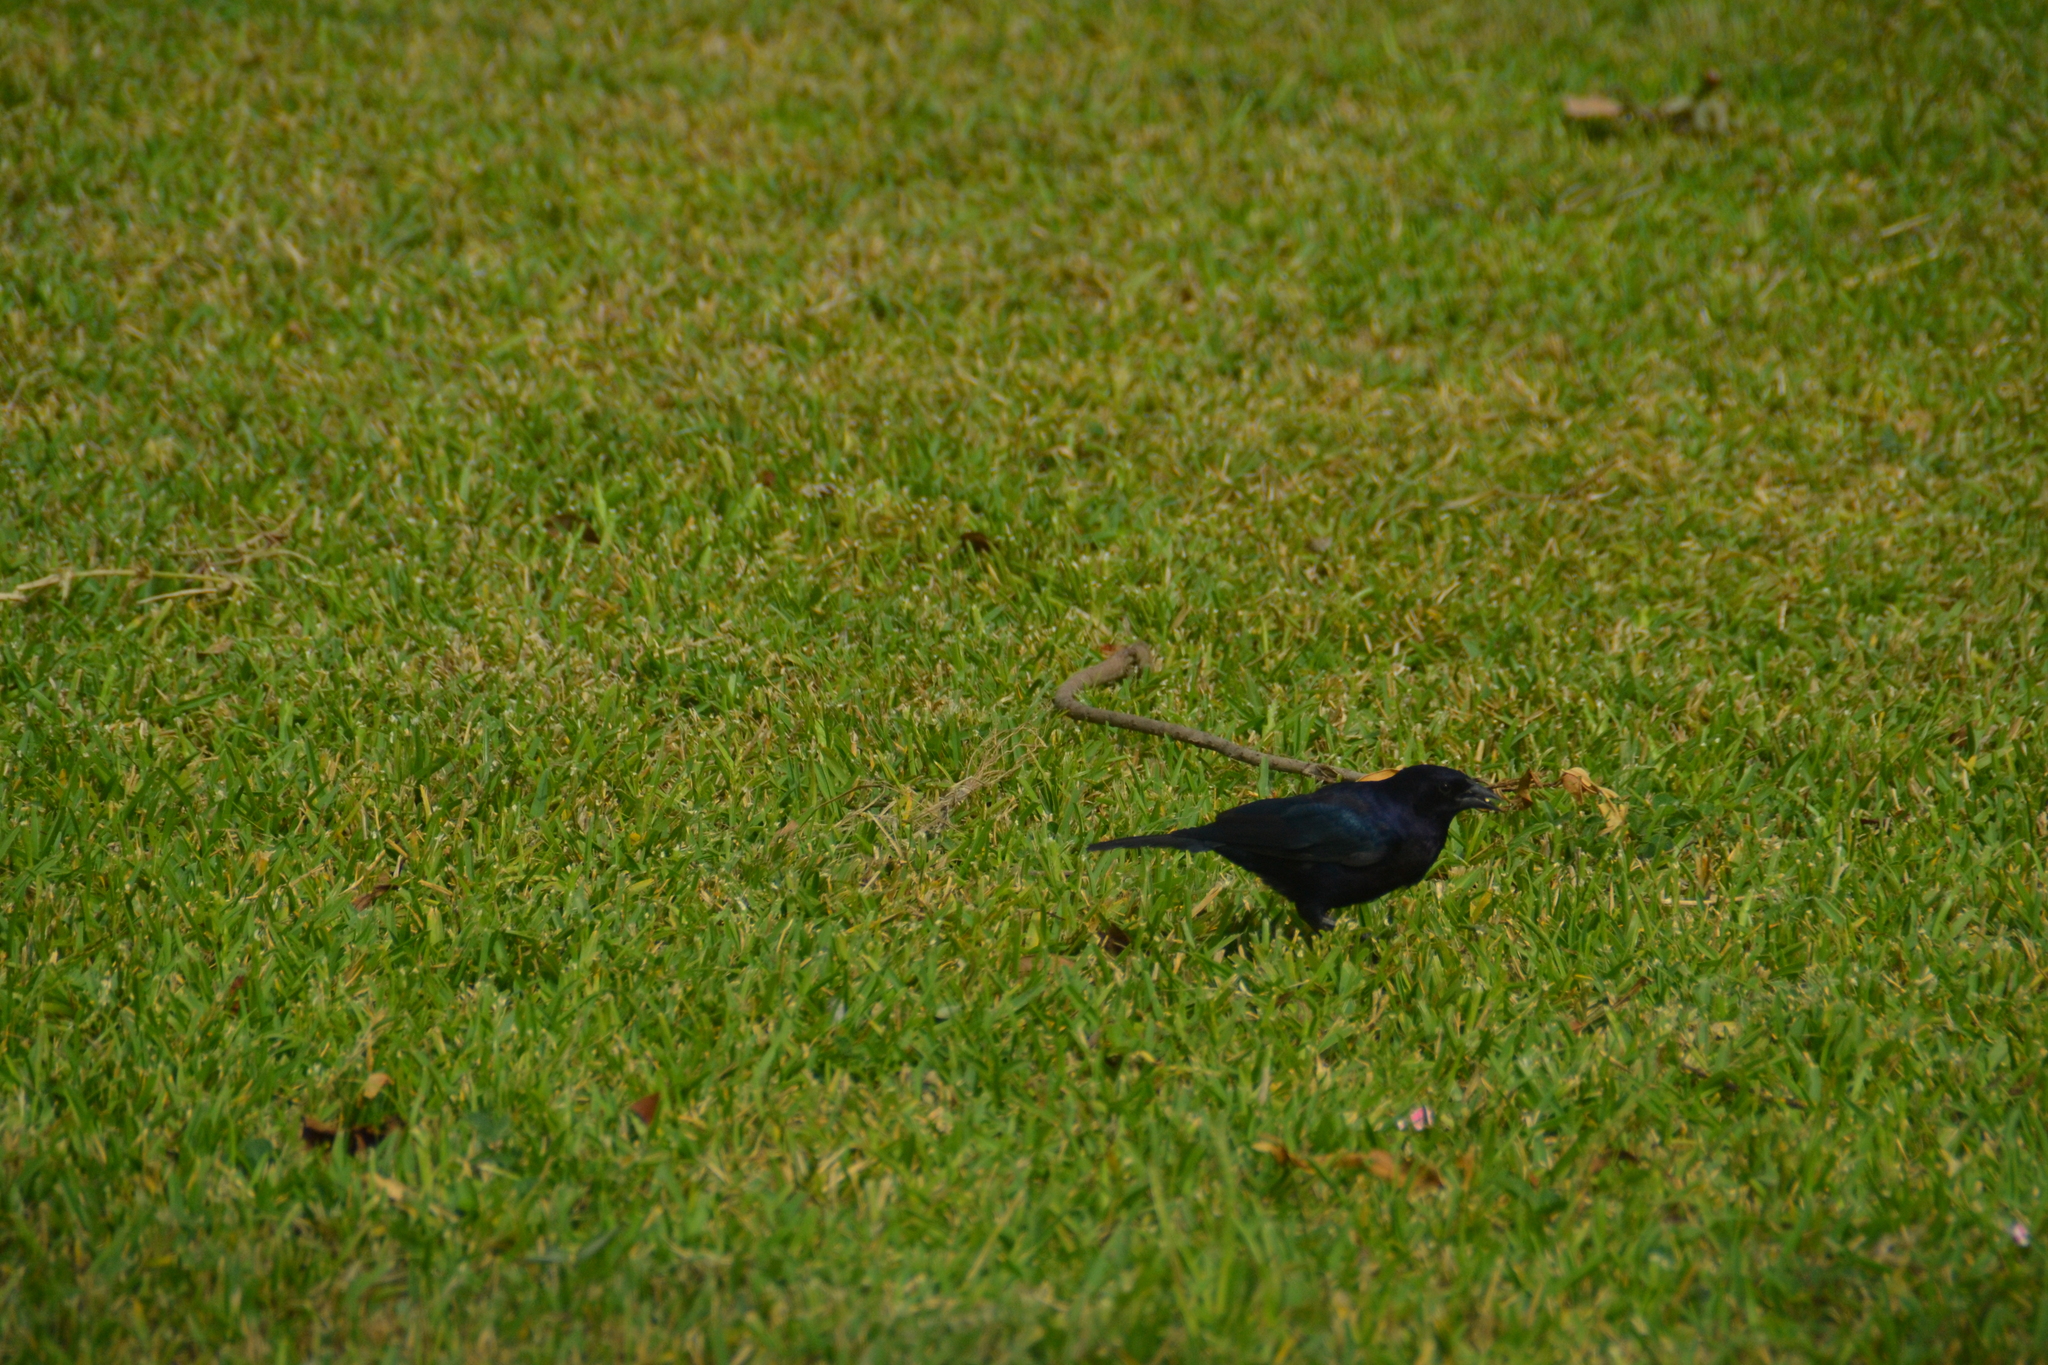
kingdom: Animalia
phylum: Chordata
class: Aves
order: Passeriformes
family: Icteridae
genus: Molothrus
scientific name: Molothrus bonariensis
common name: Shiny cowbird
